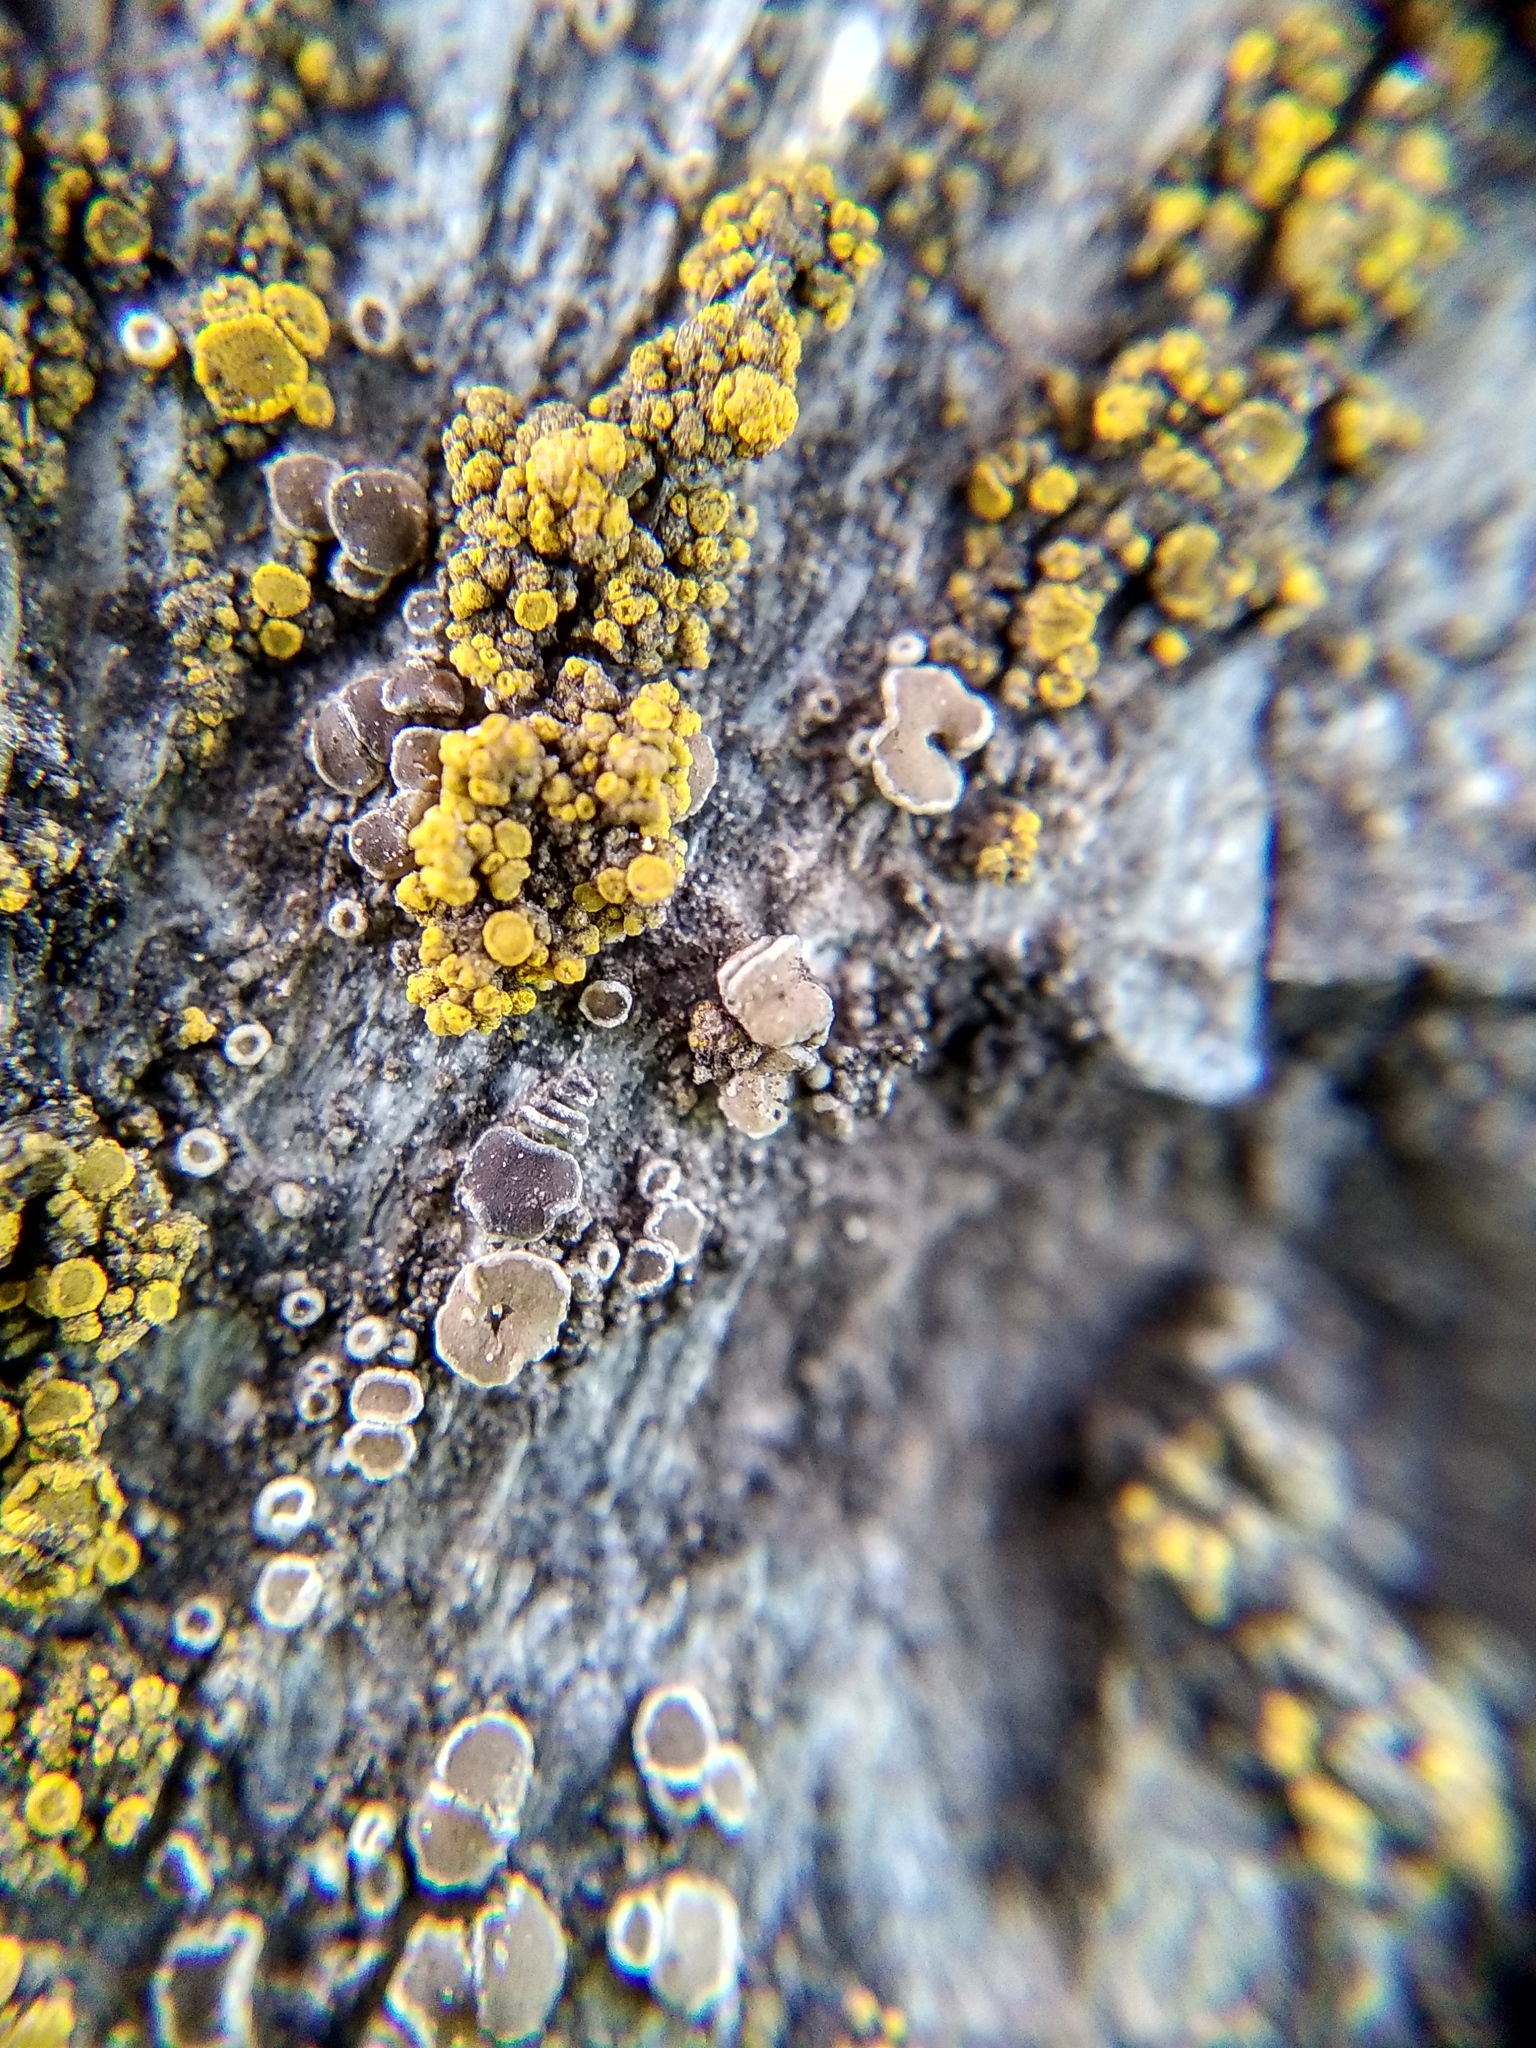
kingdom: Fungi
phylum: Ascomycota
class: Candelariomycetes
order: Candelariales
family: Candelariaceae
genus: Candelariella
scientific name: Candelariella vitellina
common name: Common goldspeck
